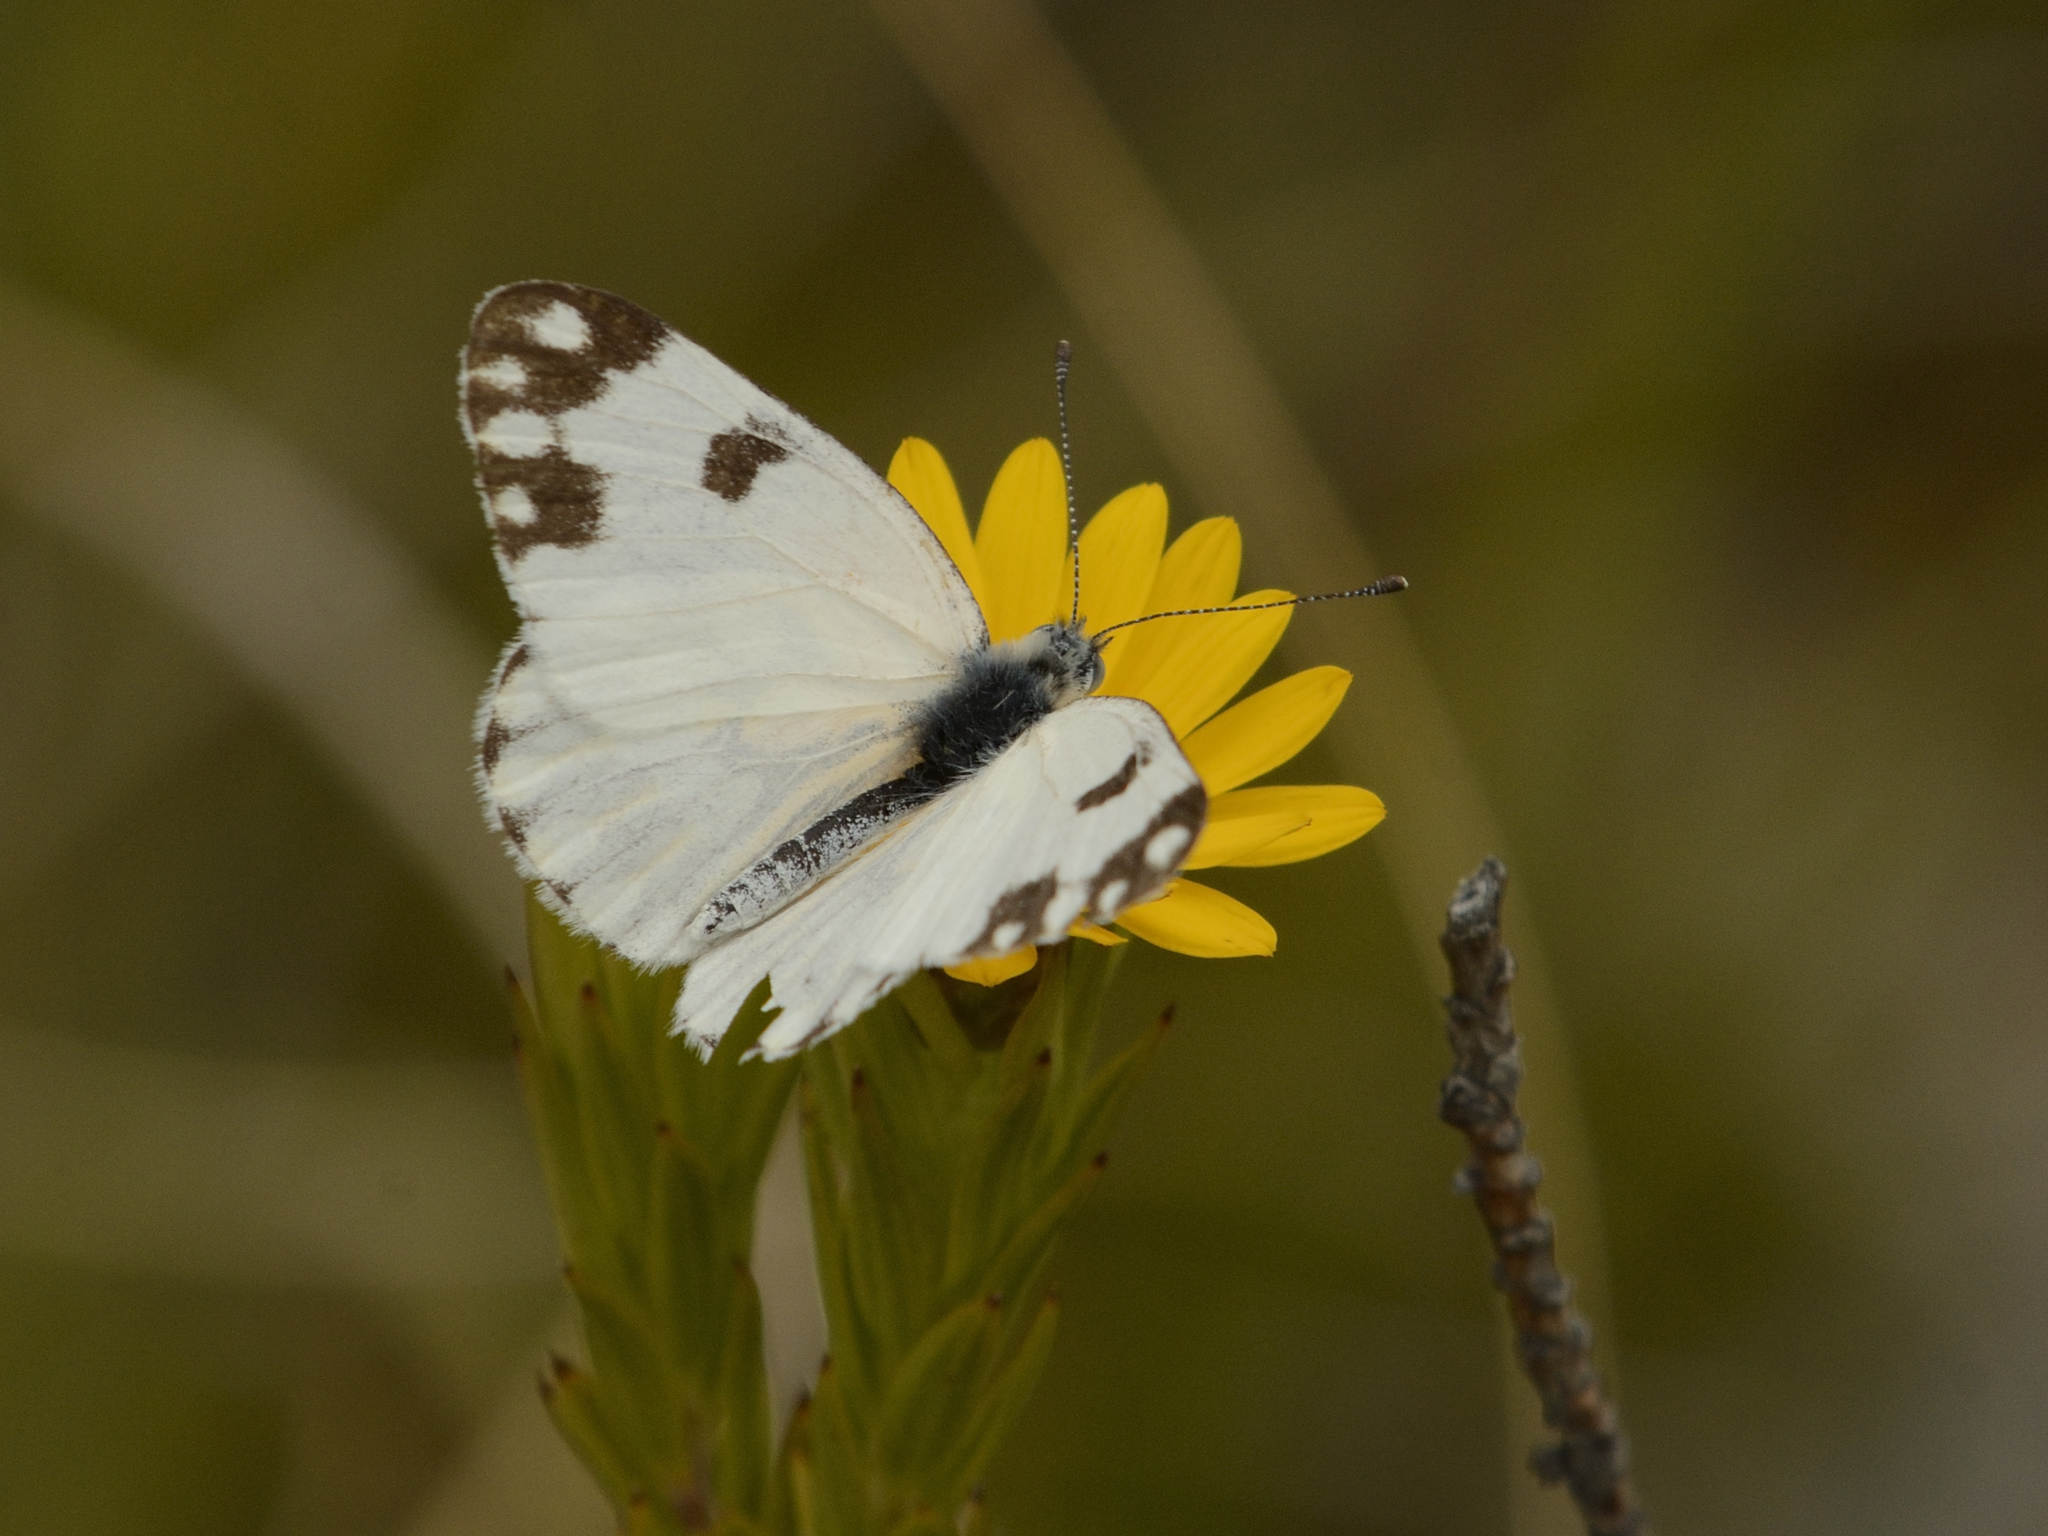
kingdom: Animalia
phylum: Arthropoda
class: Insecta
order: Lepidoptera
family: Pieridae
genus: Pontia
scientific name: Pontia helice
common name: Meadow white
